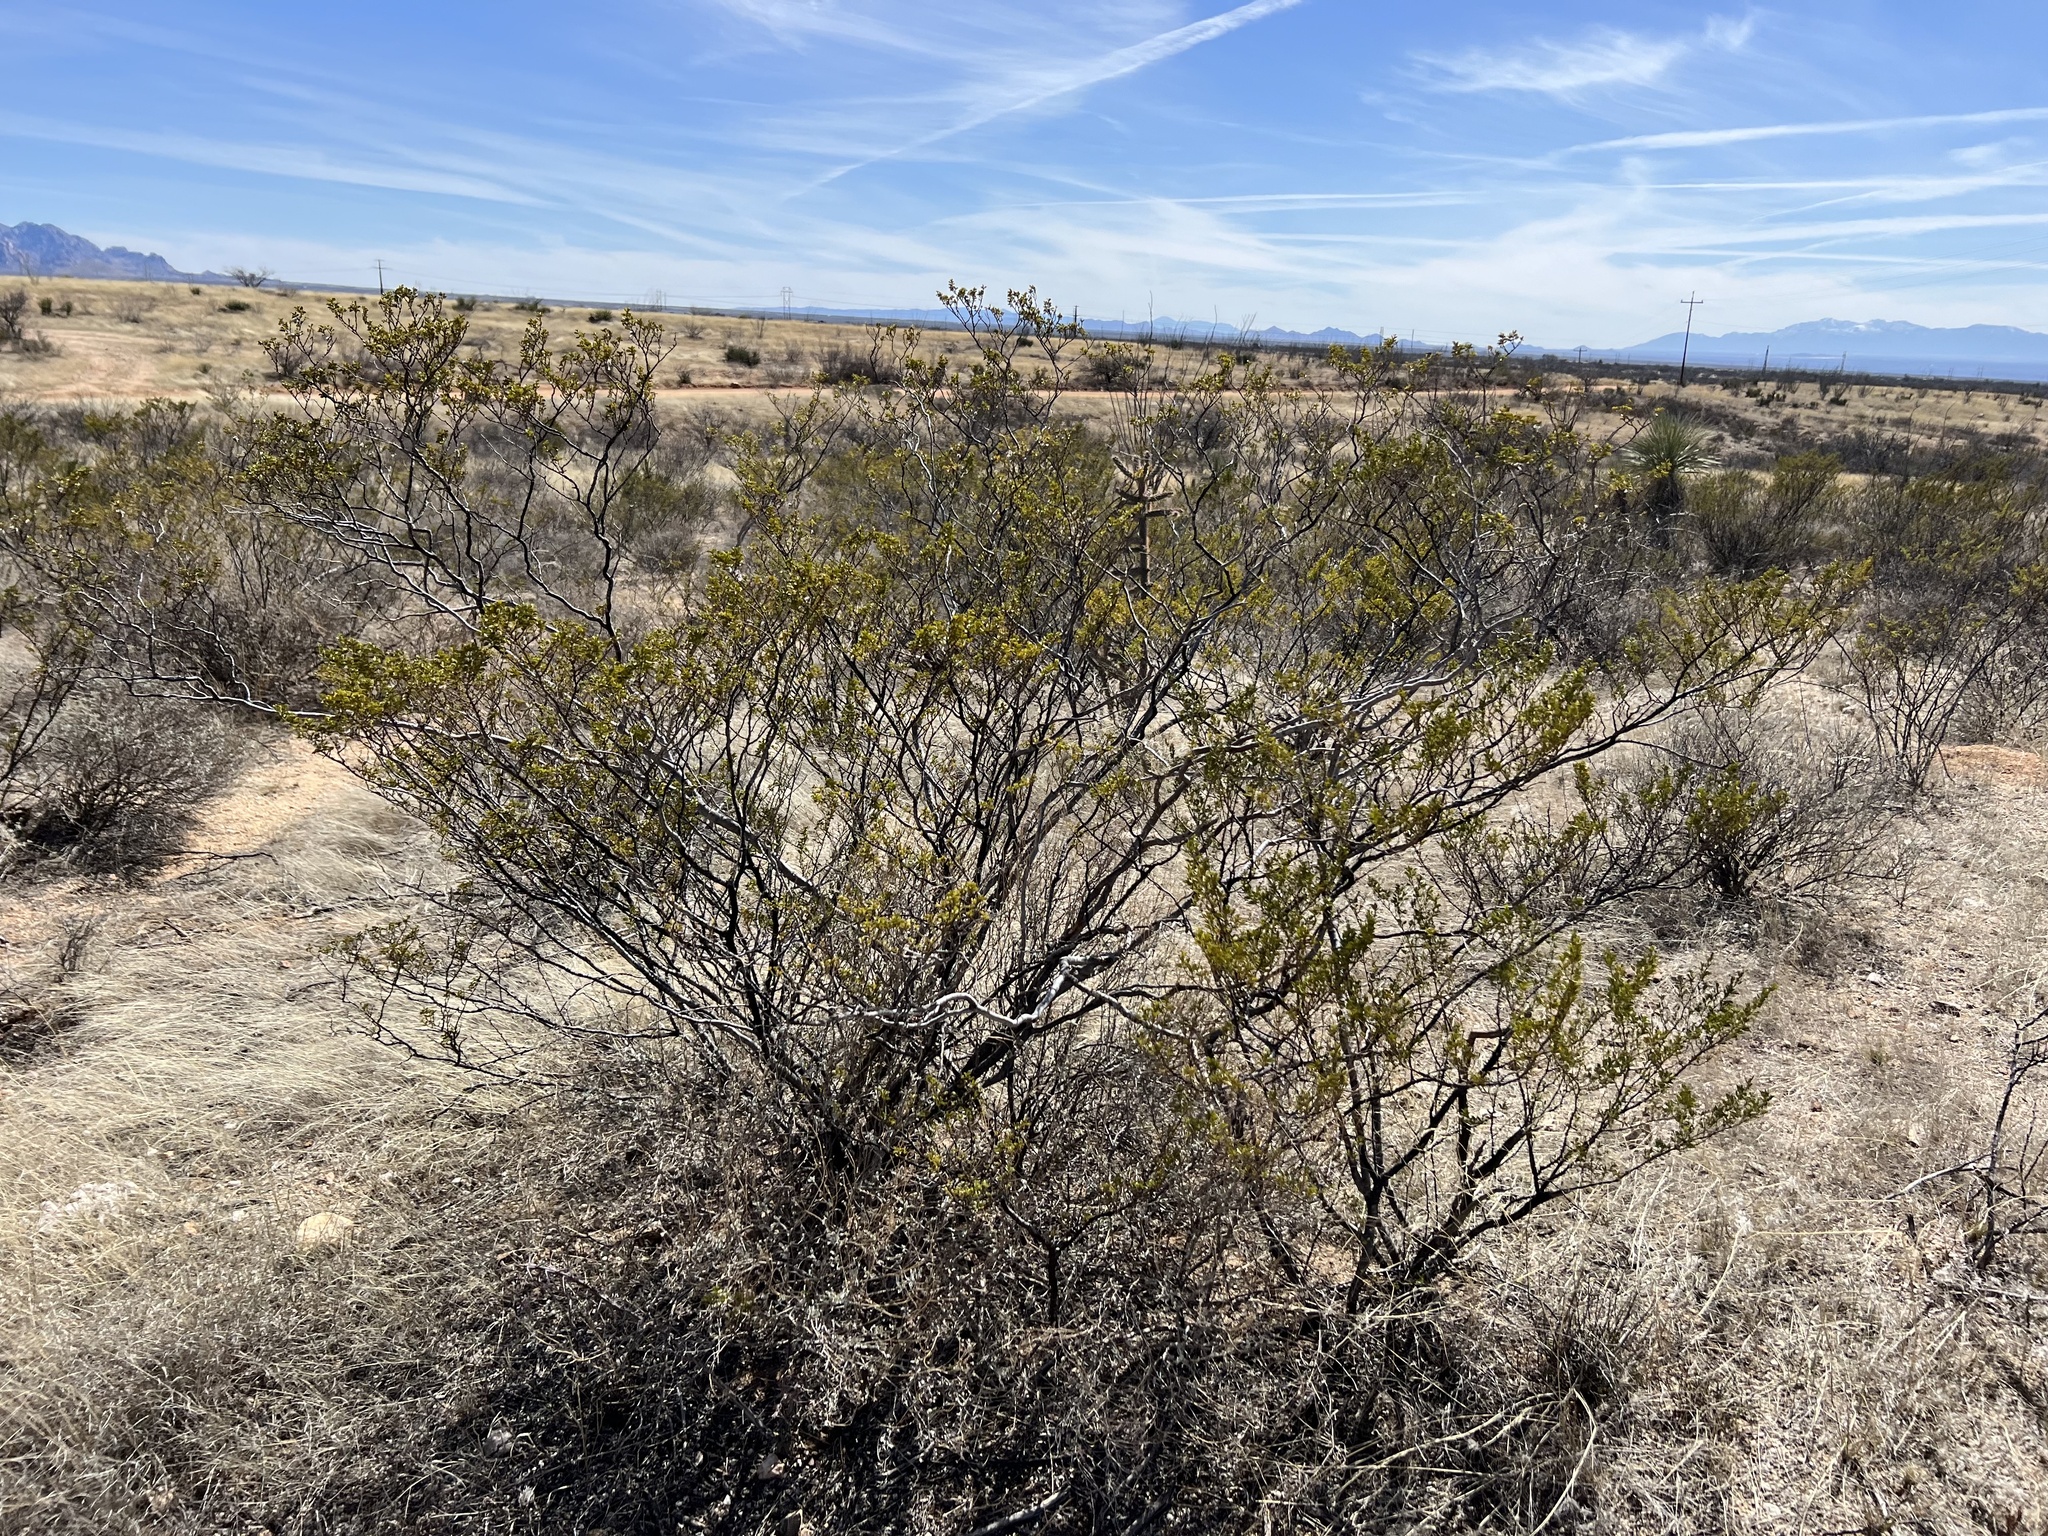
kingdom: Plantae
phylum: Tracheophyta
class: Magnoliopsida
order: Zygophyllales
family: Zygophyllaceae
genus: Larrea
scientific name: Larrea tridentata
